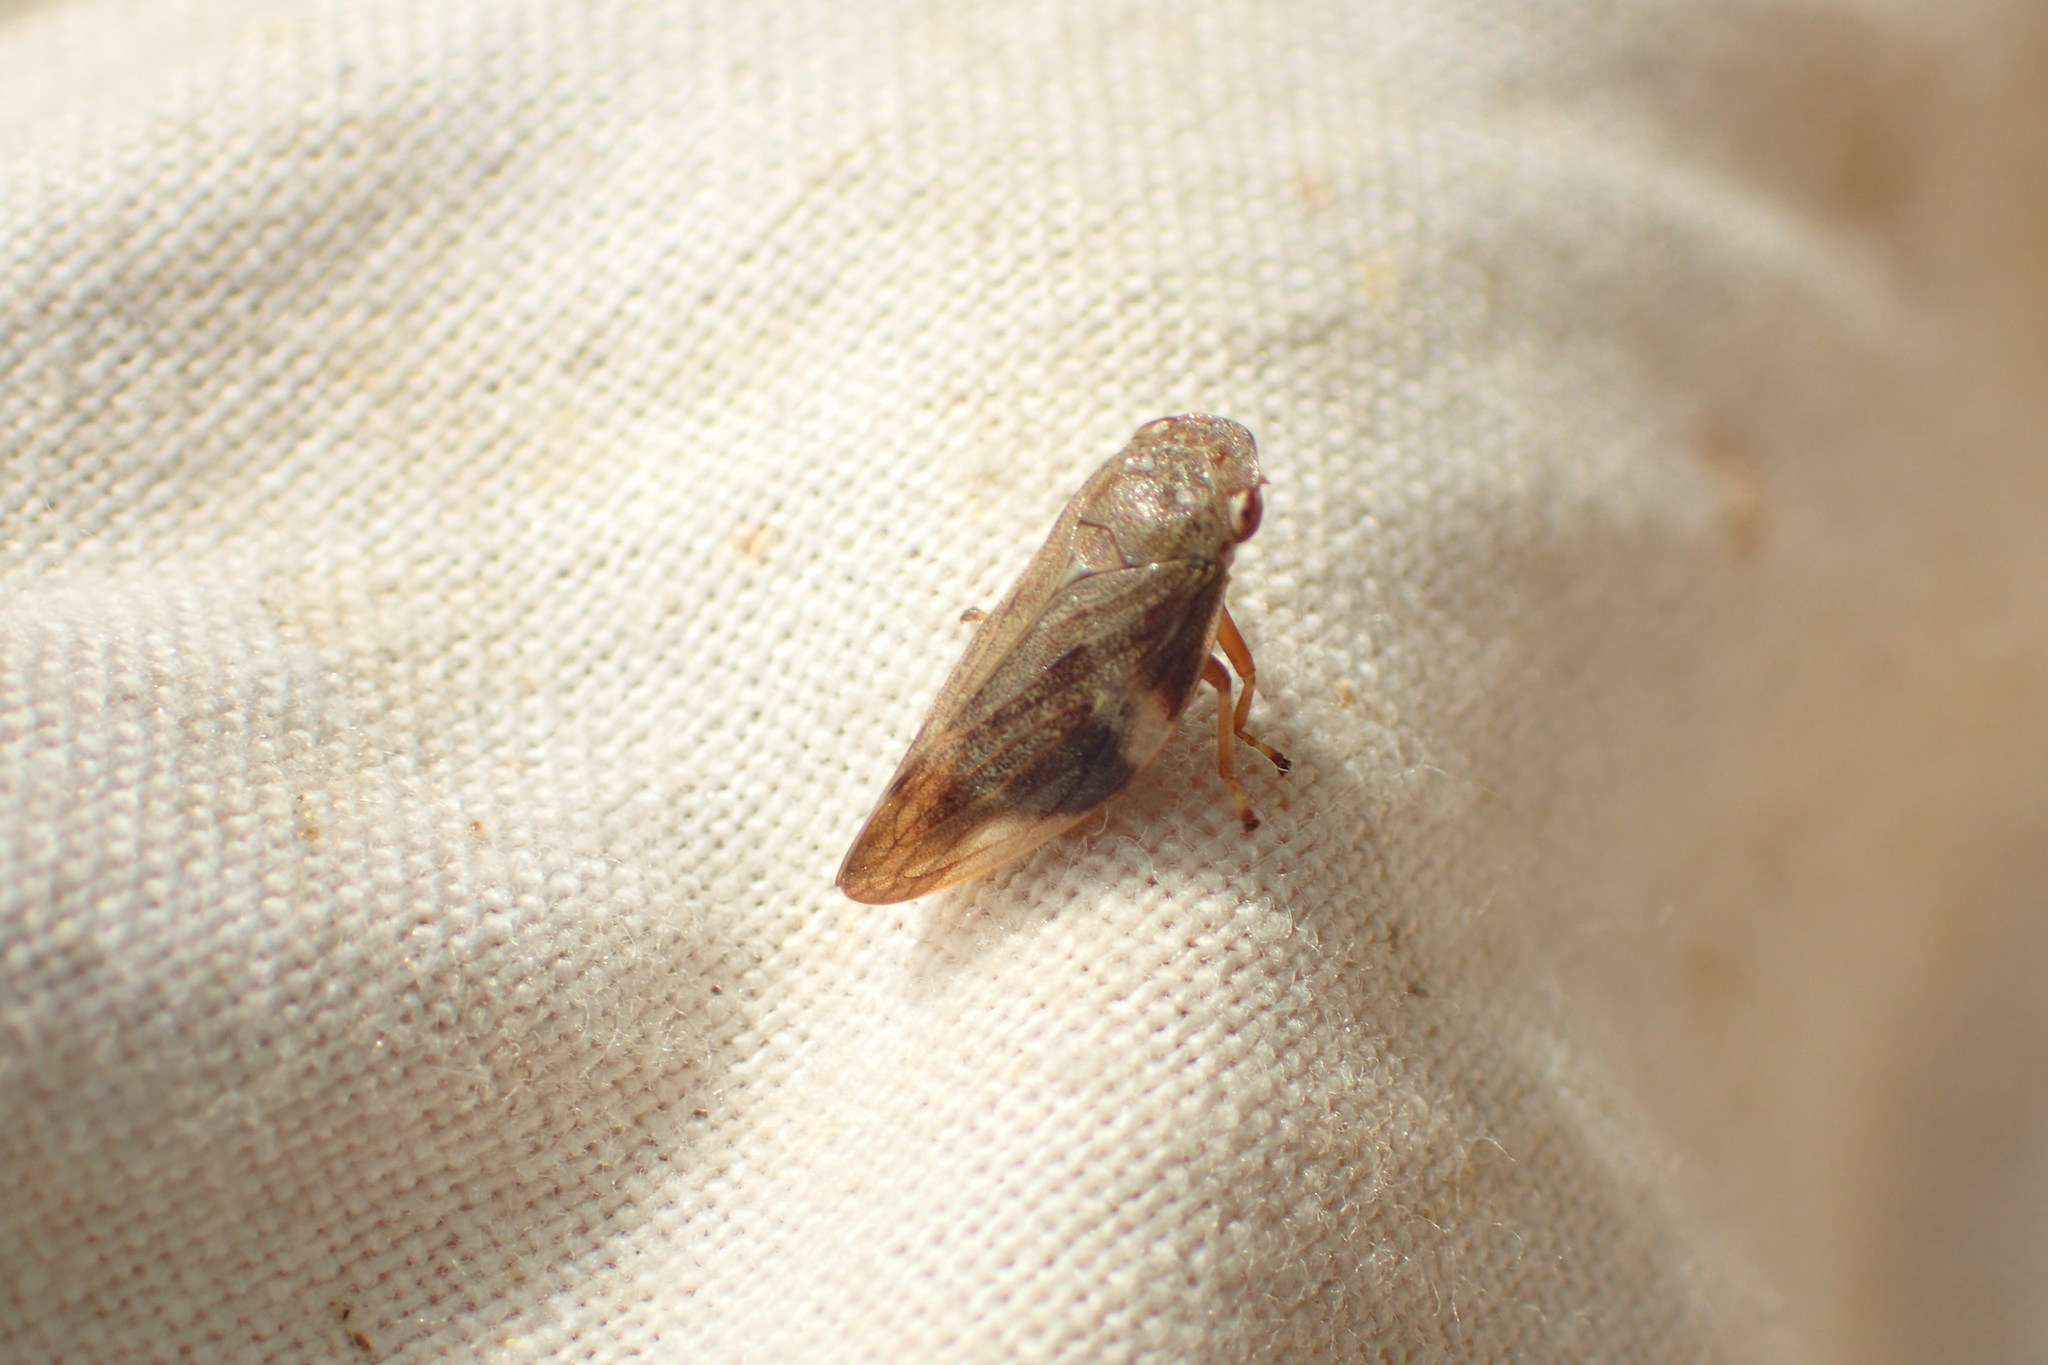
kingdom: Animalia
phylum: Arthropoda
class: Insecta
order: Hemiptera
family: Aphrophoridae
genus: Aphrophora
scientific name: Aphrophora alni
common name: European alder spittlebug
